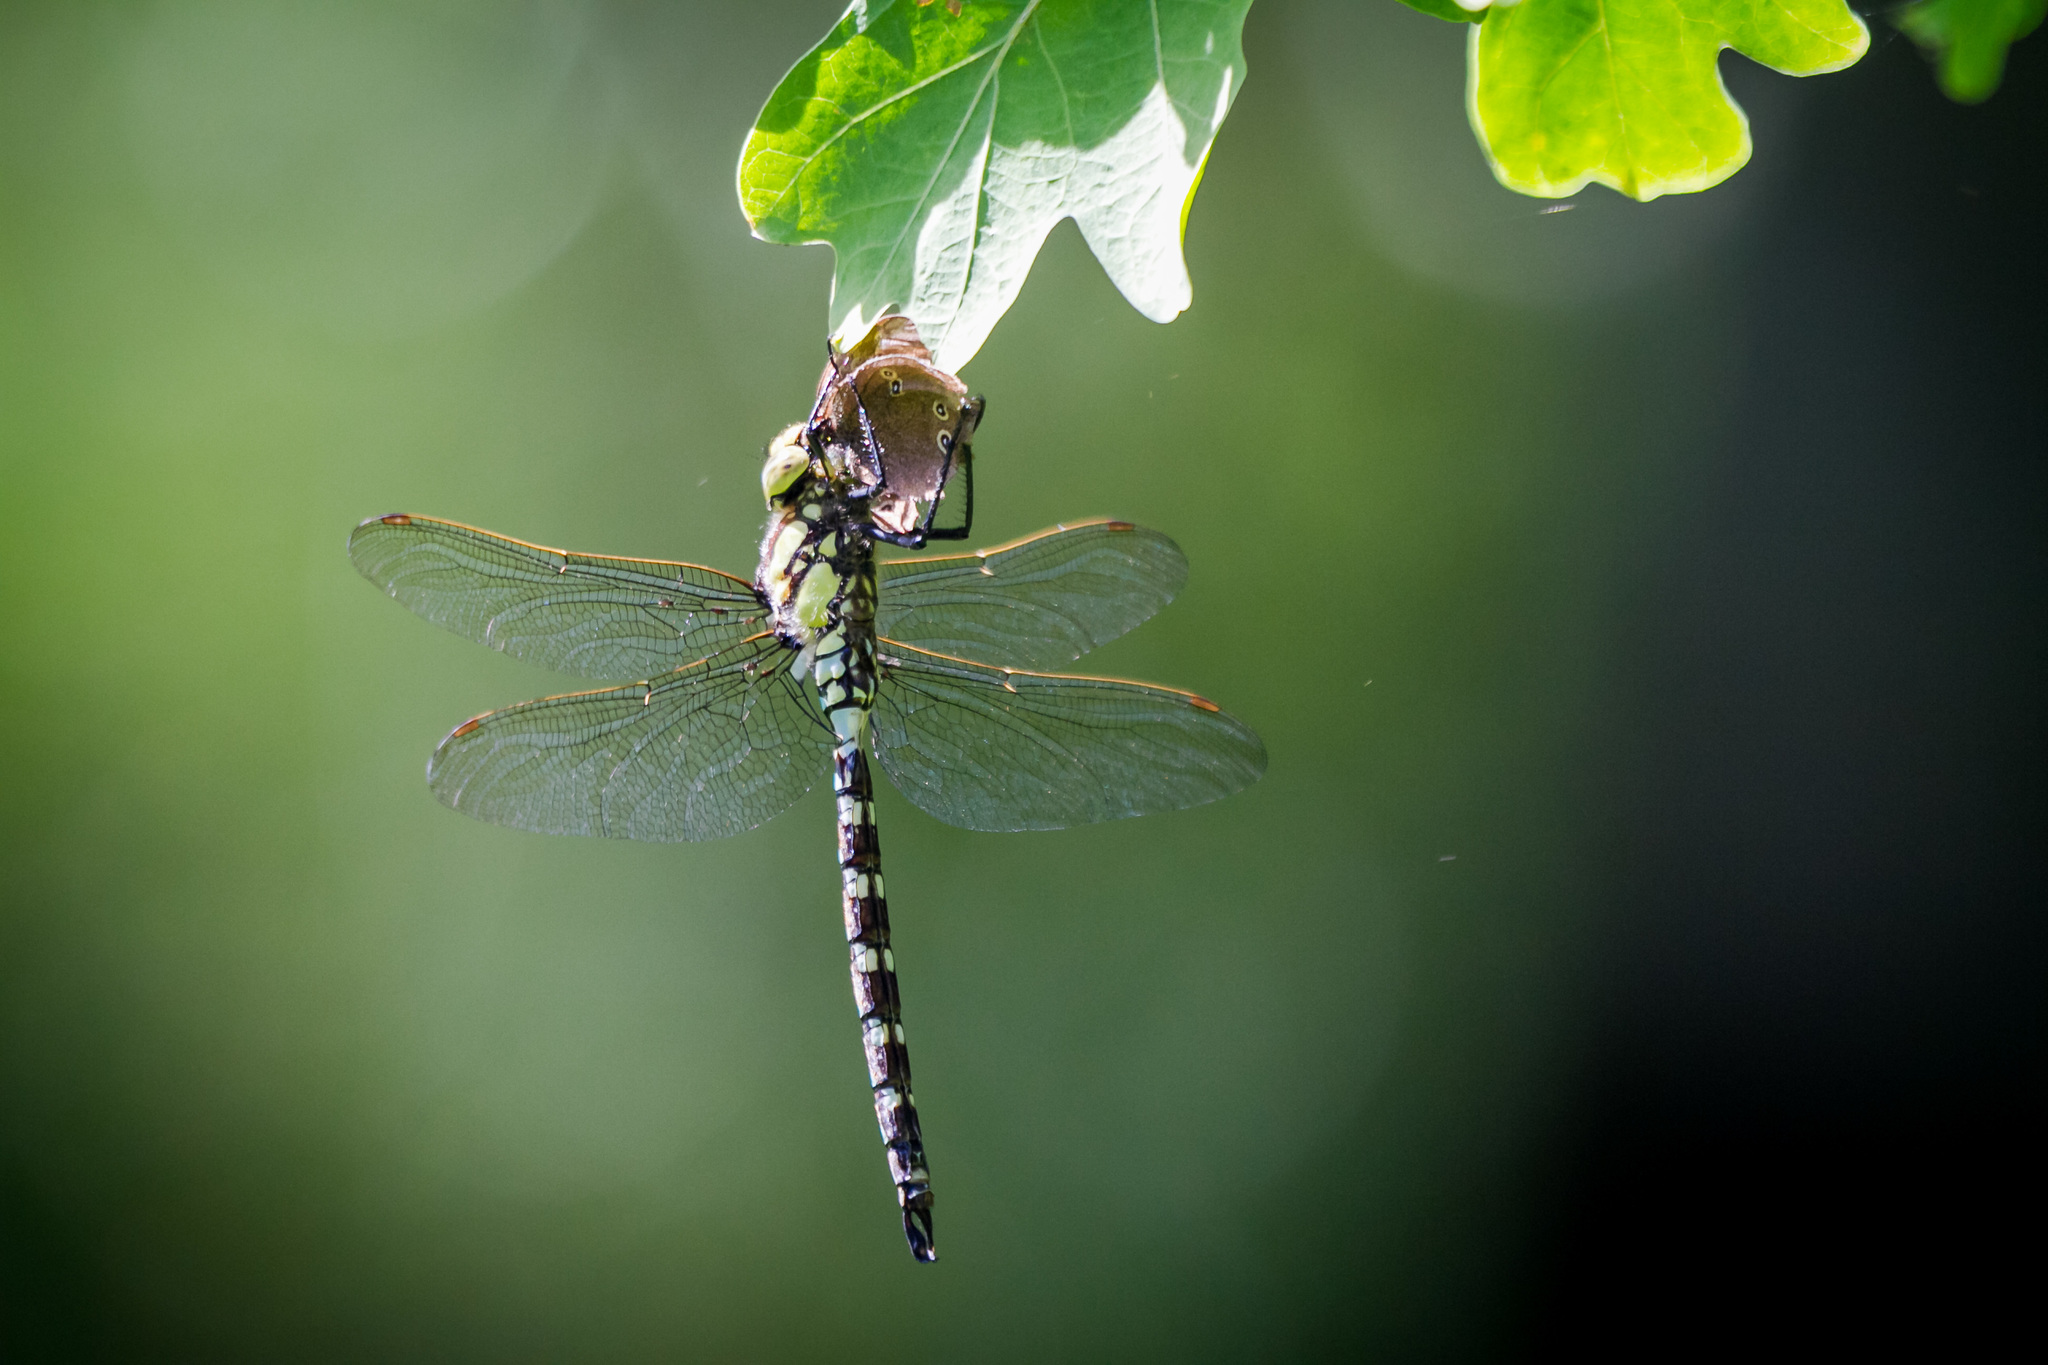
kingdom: Animalia
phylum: Arthropoda
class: Insecta
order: Odonata
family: Aeshnidae
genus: Aeshna
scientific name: Aeshna cyanea
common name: Southern hawker
